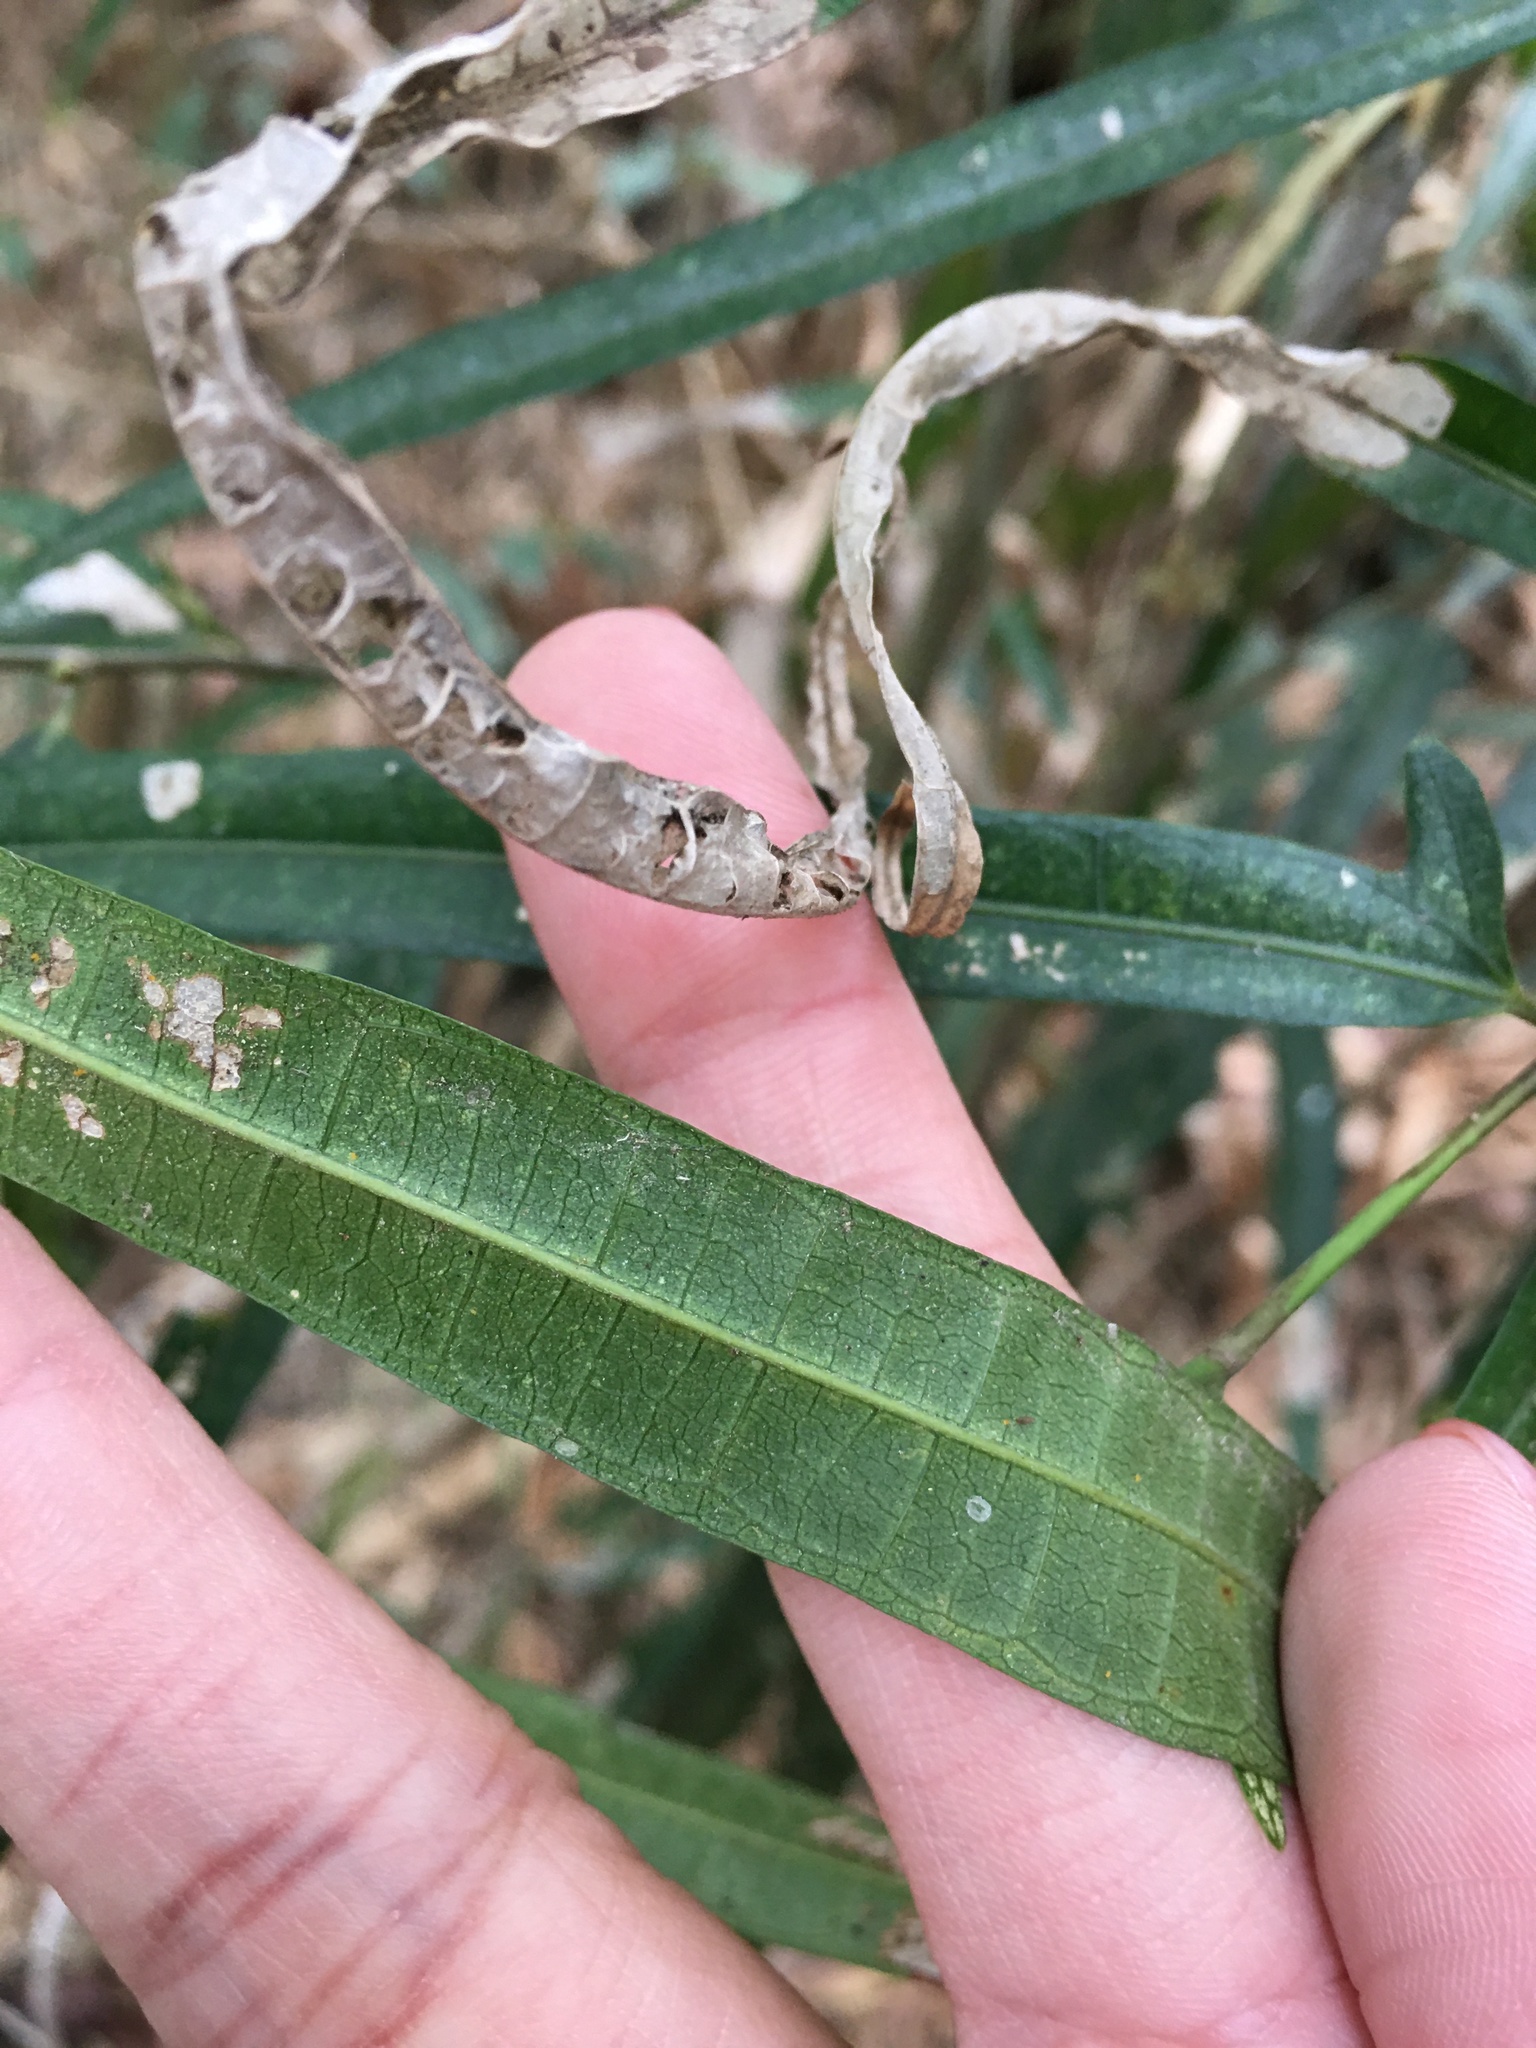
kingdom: Plantae
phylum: Tracheophyta
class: Magnoliopsida
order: Rosales
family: Moraceae
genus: Ficus
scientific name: Ficus ampelos
